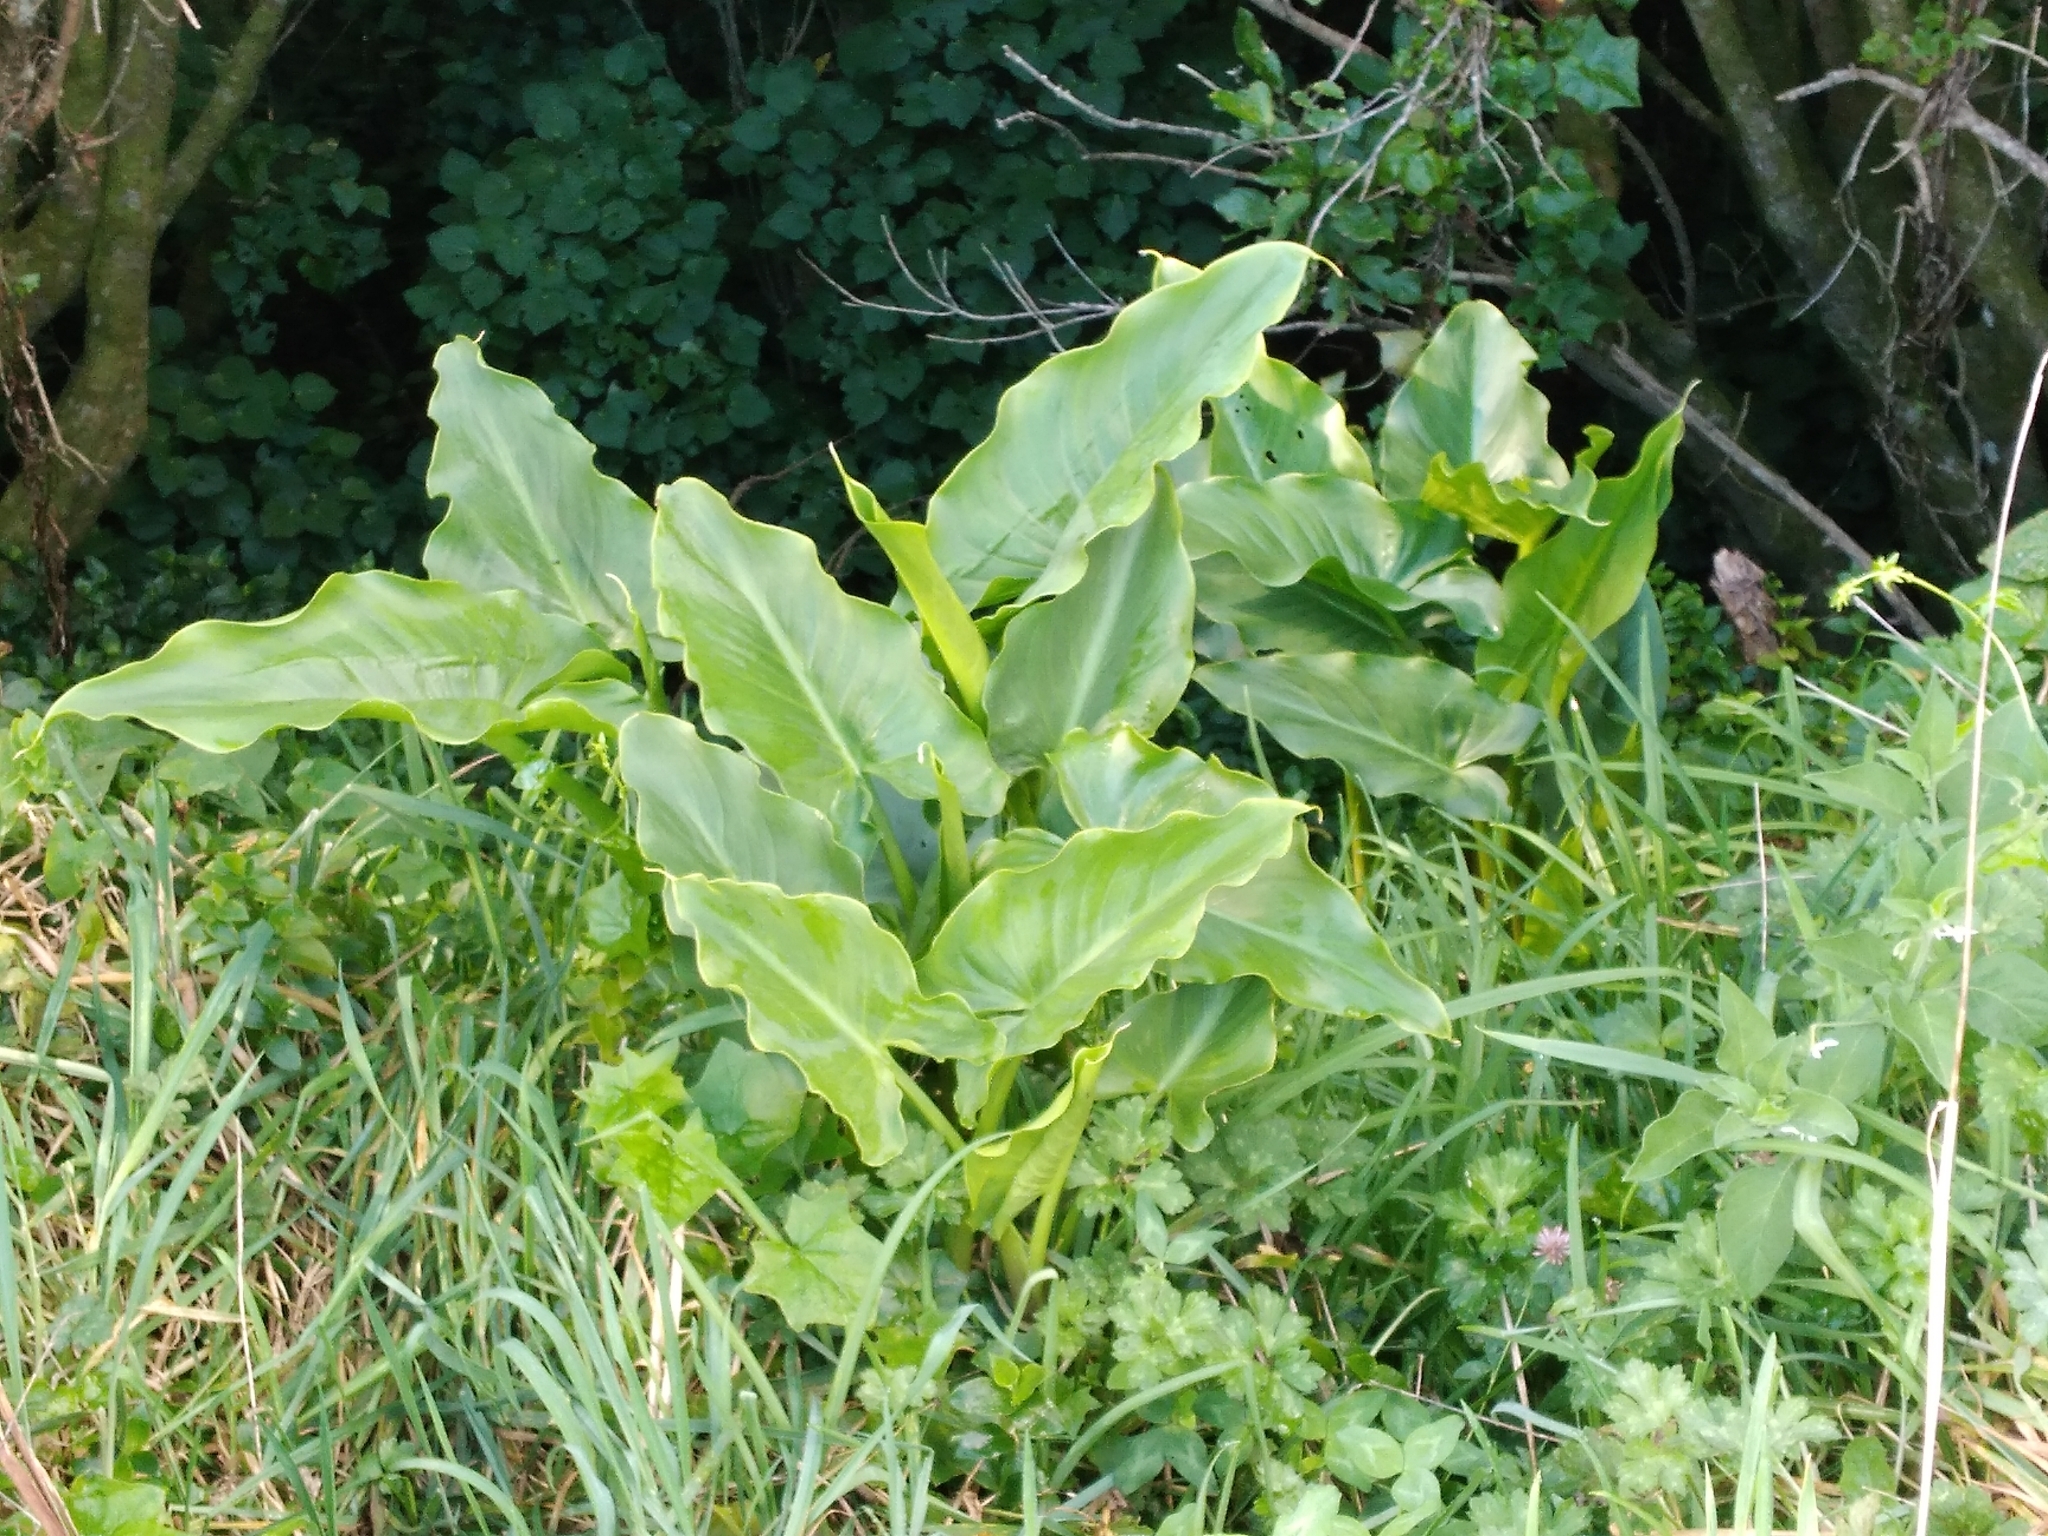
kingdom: Plantae
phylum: Tracheophyta
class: Liliopsida
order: Alismatales
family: Araceae
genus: Zantedeschia
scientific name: Zantedeschia aethiopica
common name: Altar-lily
